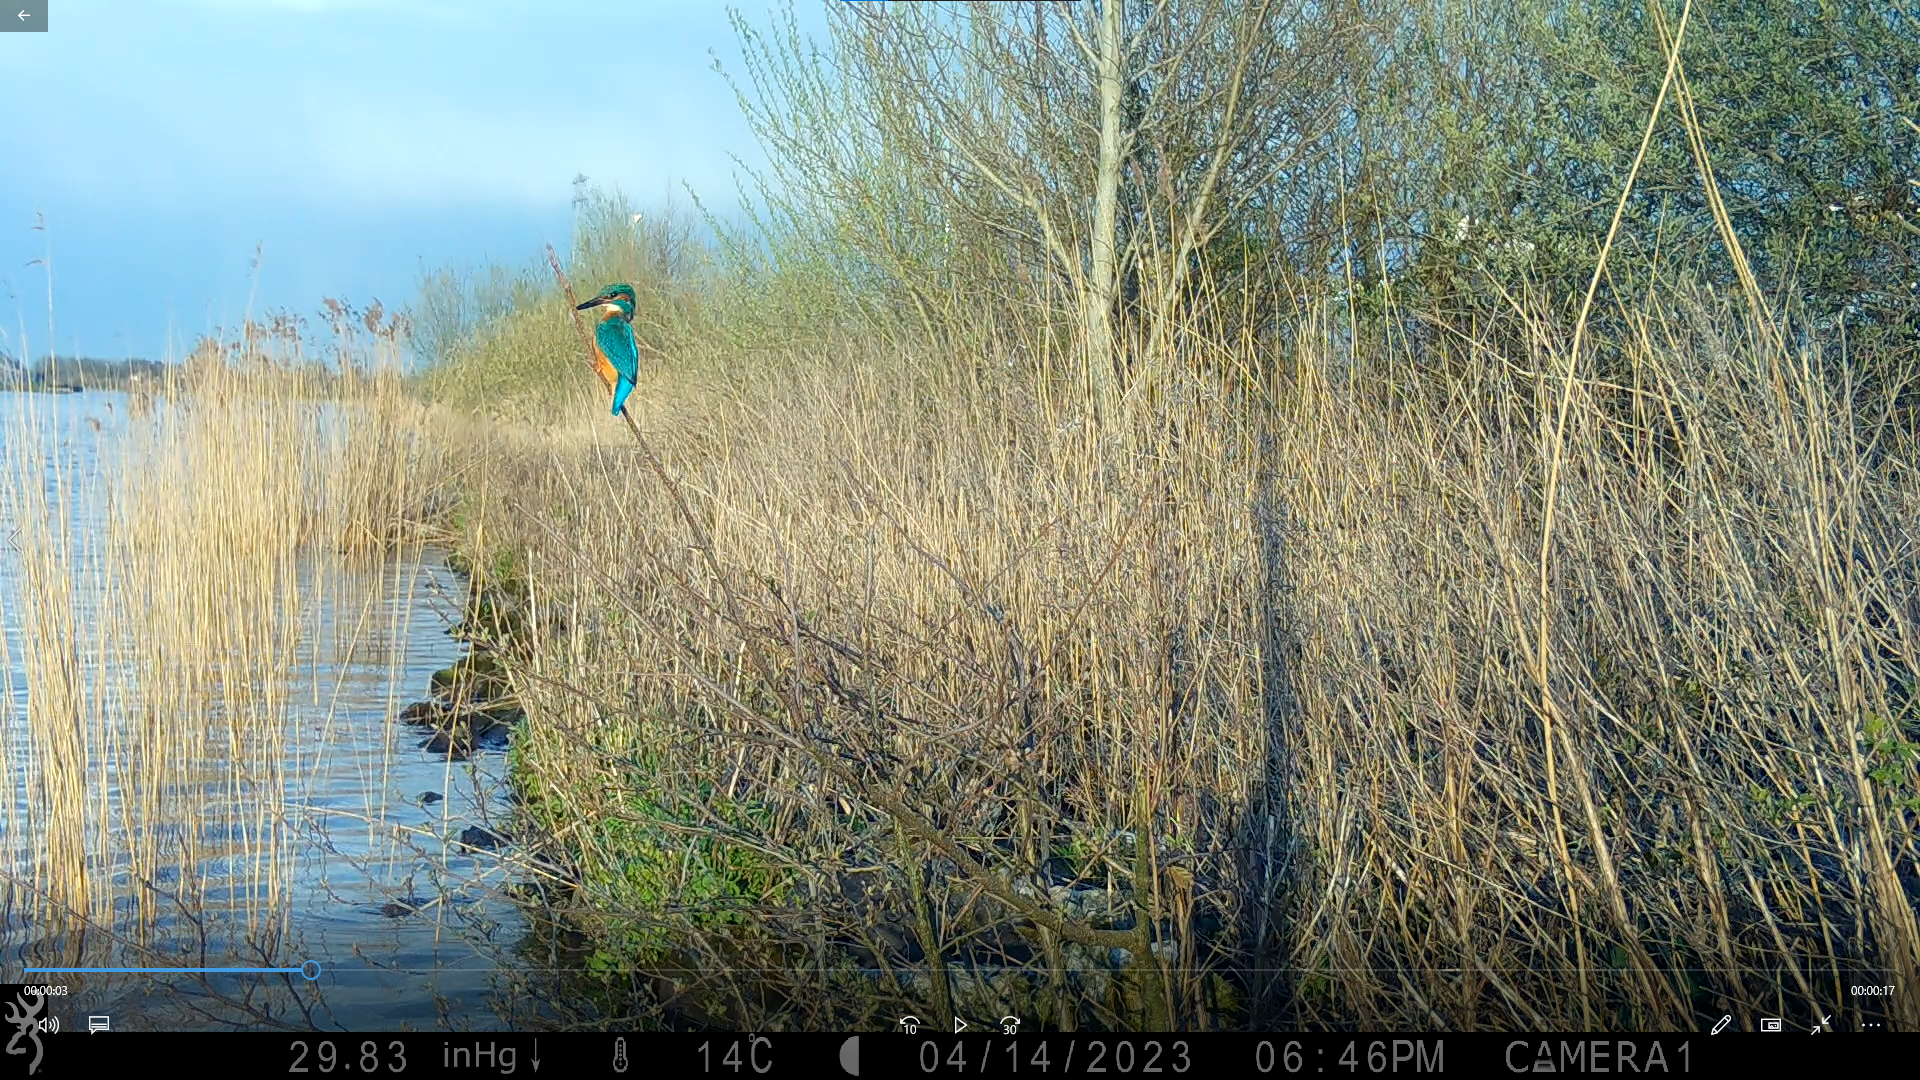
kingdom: Animalia
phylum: Chordata
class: Aves
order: Coraciiformes
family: Alcedinidae
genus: Alcedo
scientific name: Alcedo atthis
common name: Common kingfisher
